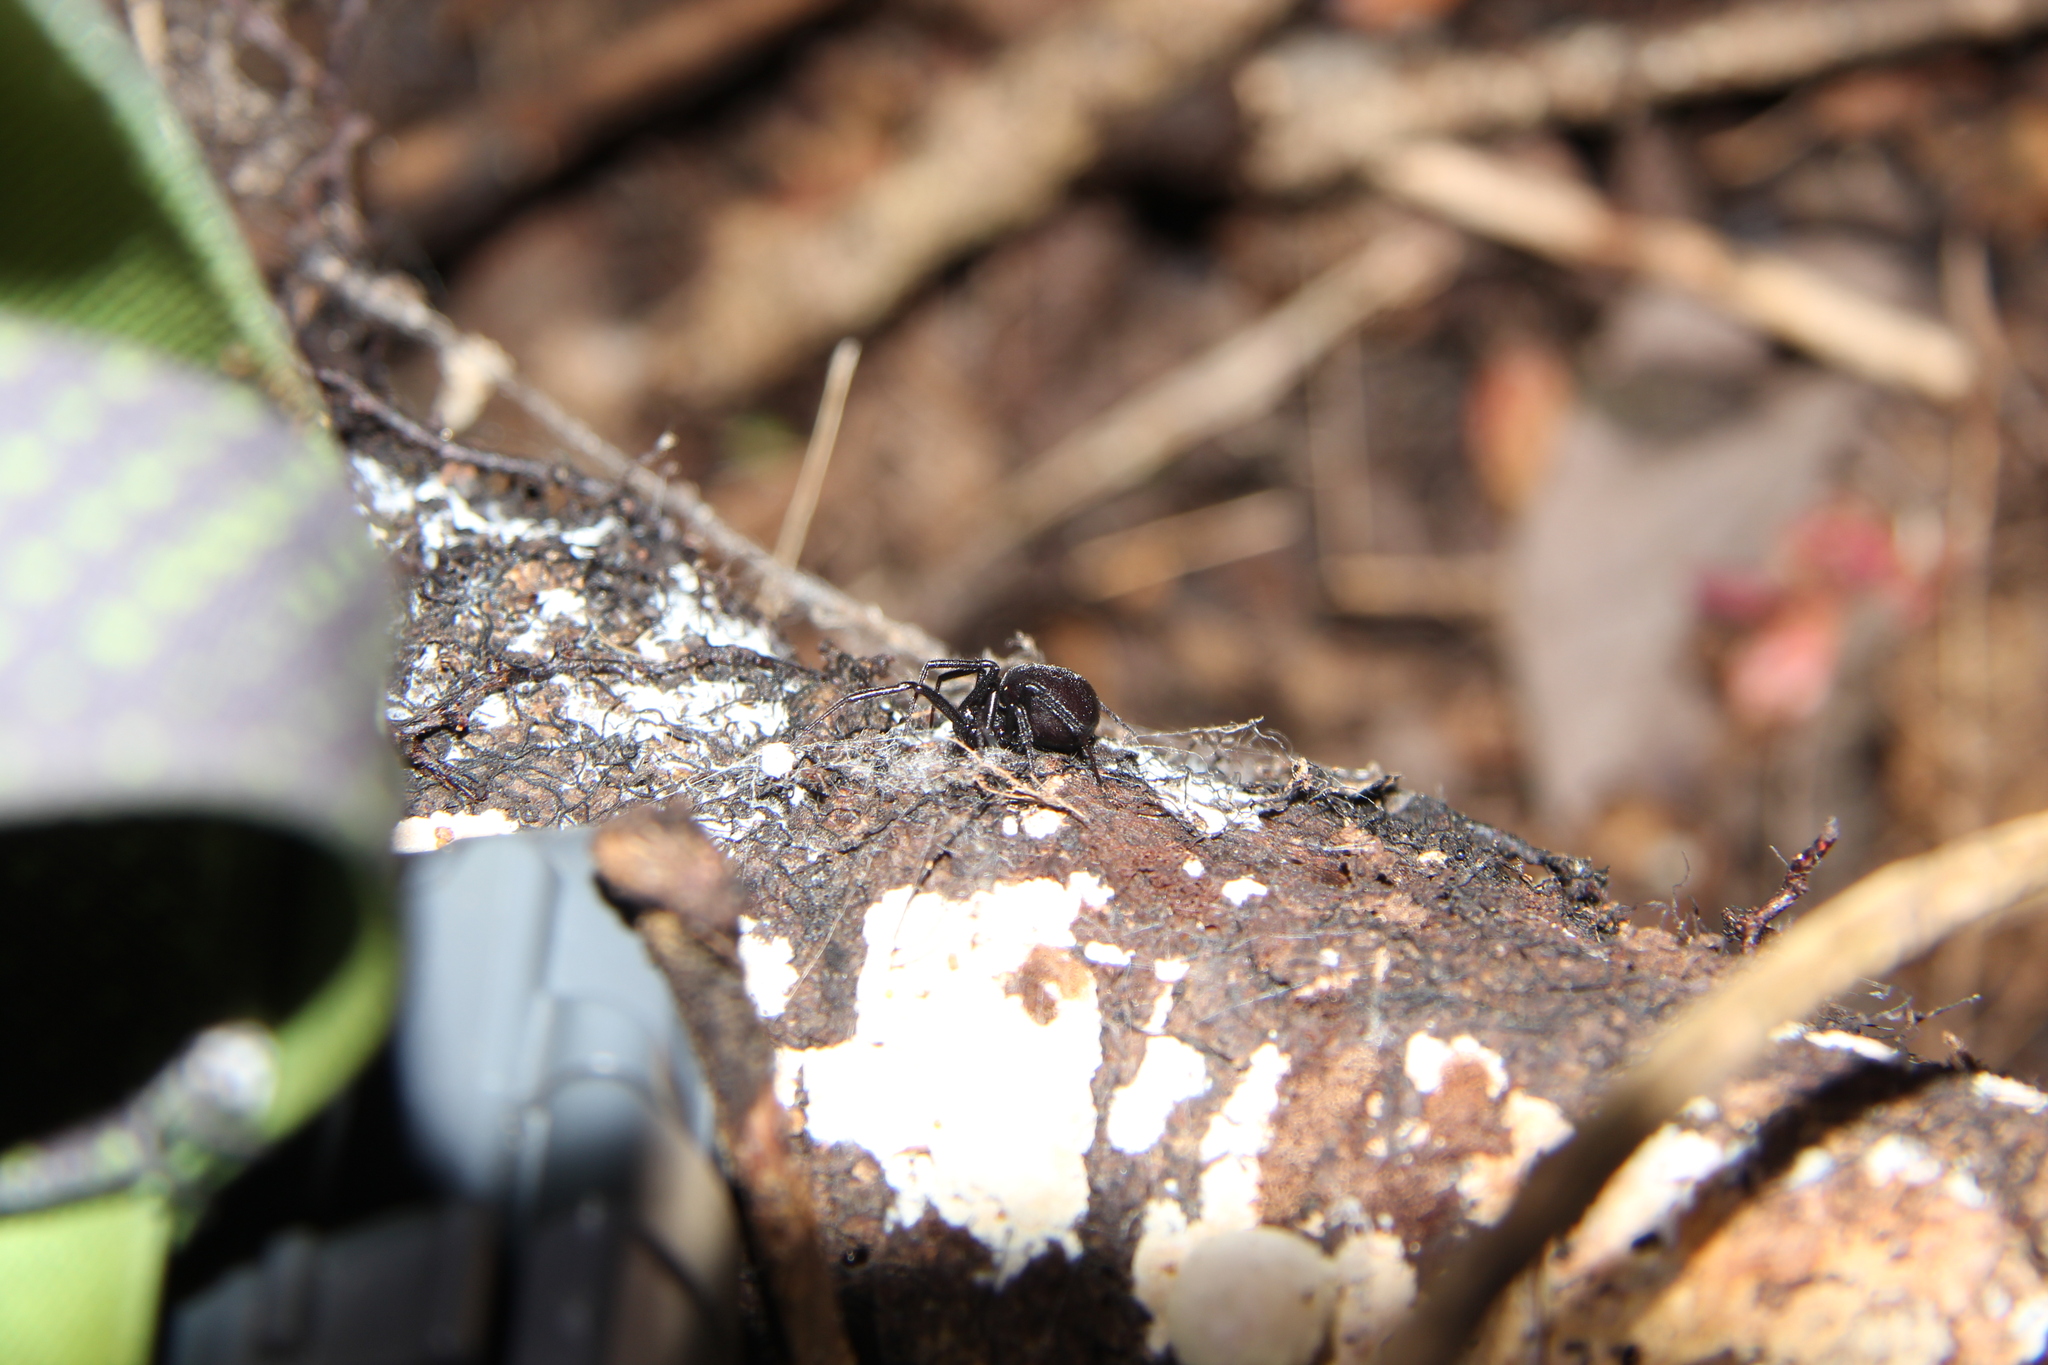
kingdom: Animalia
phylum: Arthropoda
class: Arachnida
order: Araneae
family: Theridiidae
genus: Steatoda
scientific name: Steatoda capensis
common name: Cobweb weaver
